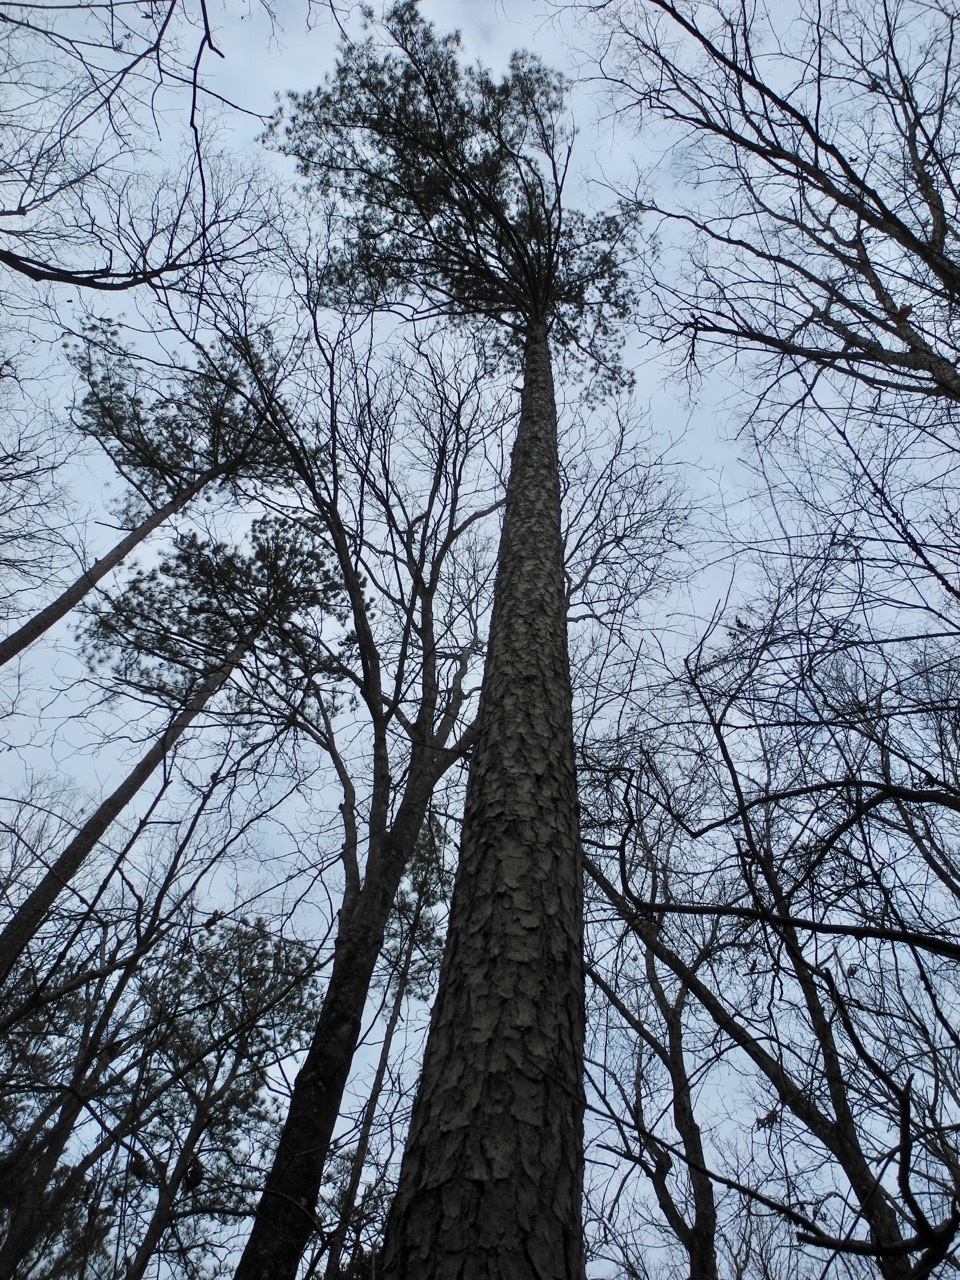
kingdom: Plantae
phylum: Tracheophyta
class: Pinopsida
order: Pinales
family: Pinaceae
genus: Pinus
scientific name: Pinus echinata
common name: Shortleaf pine
